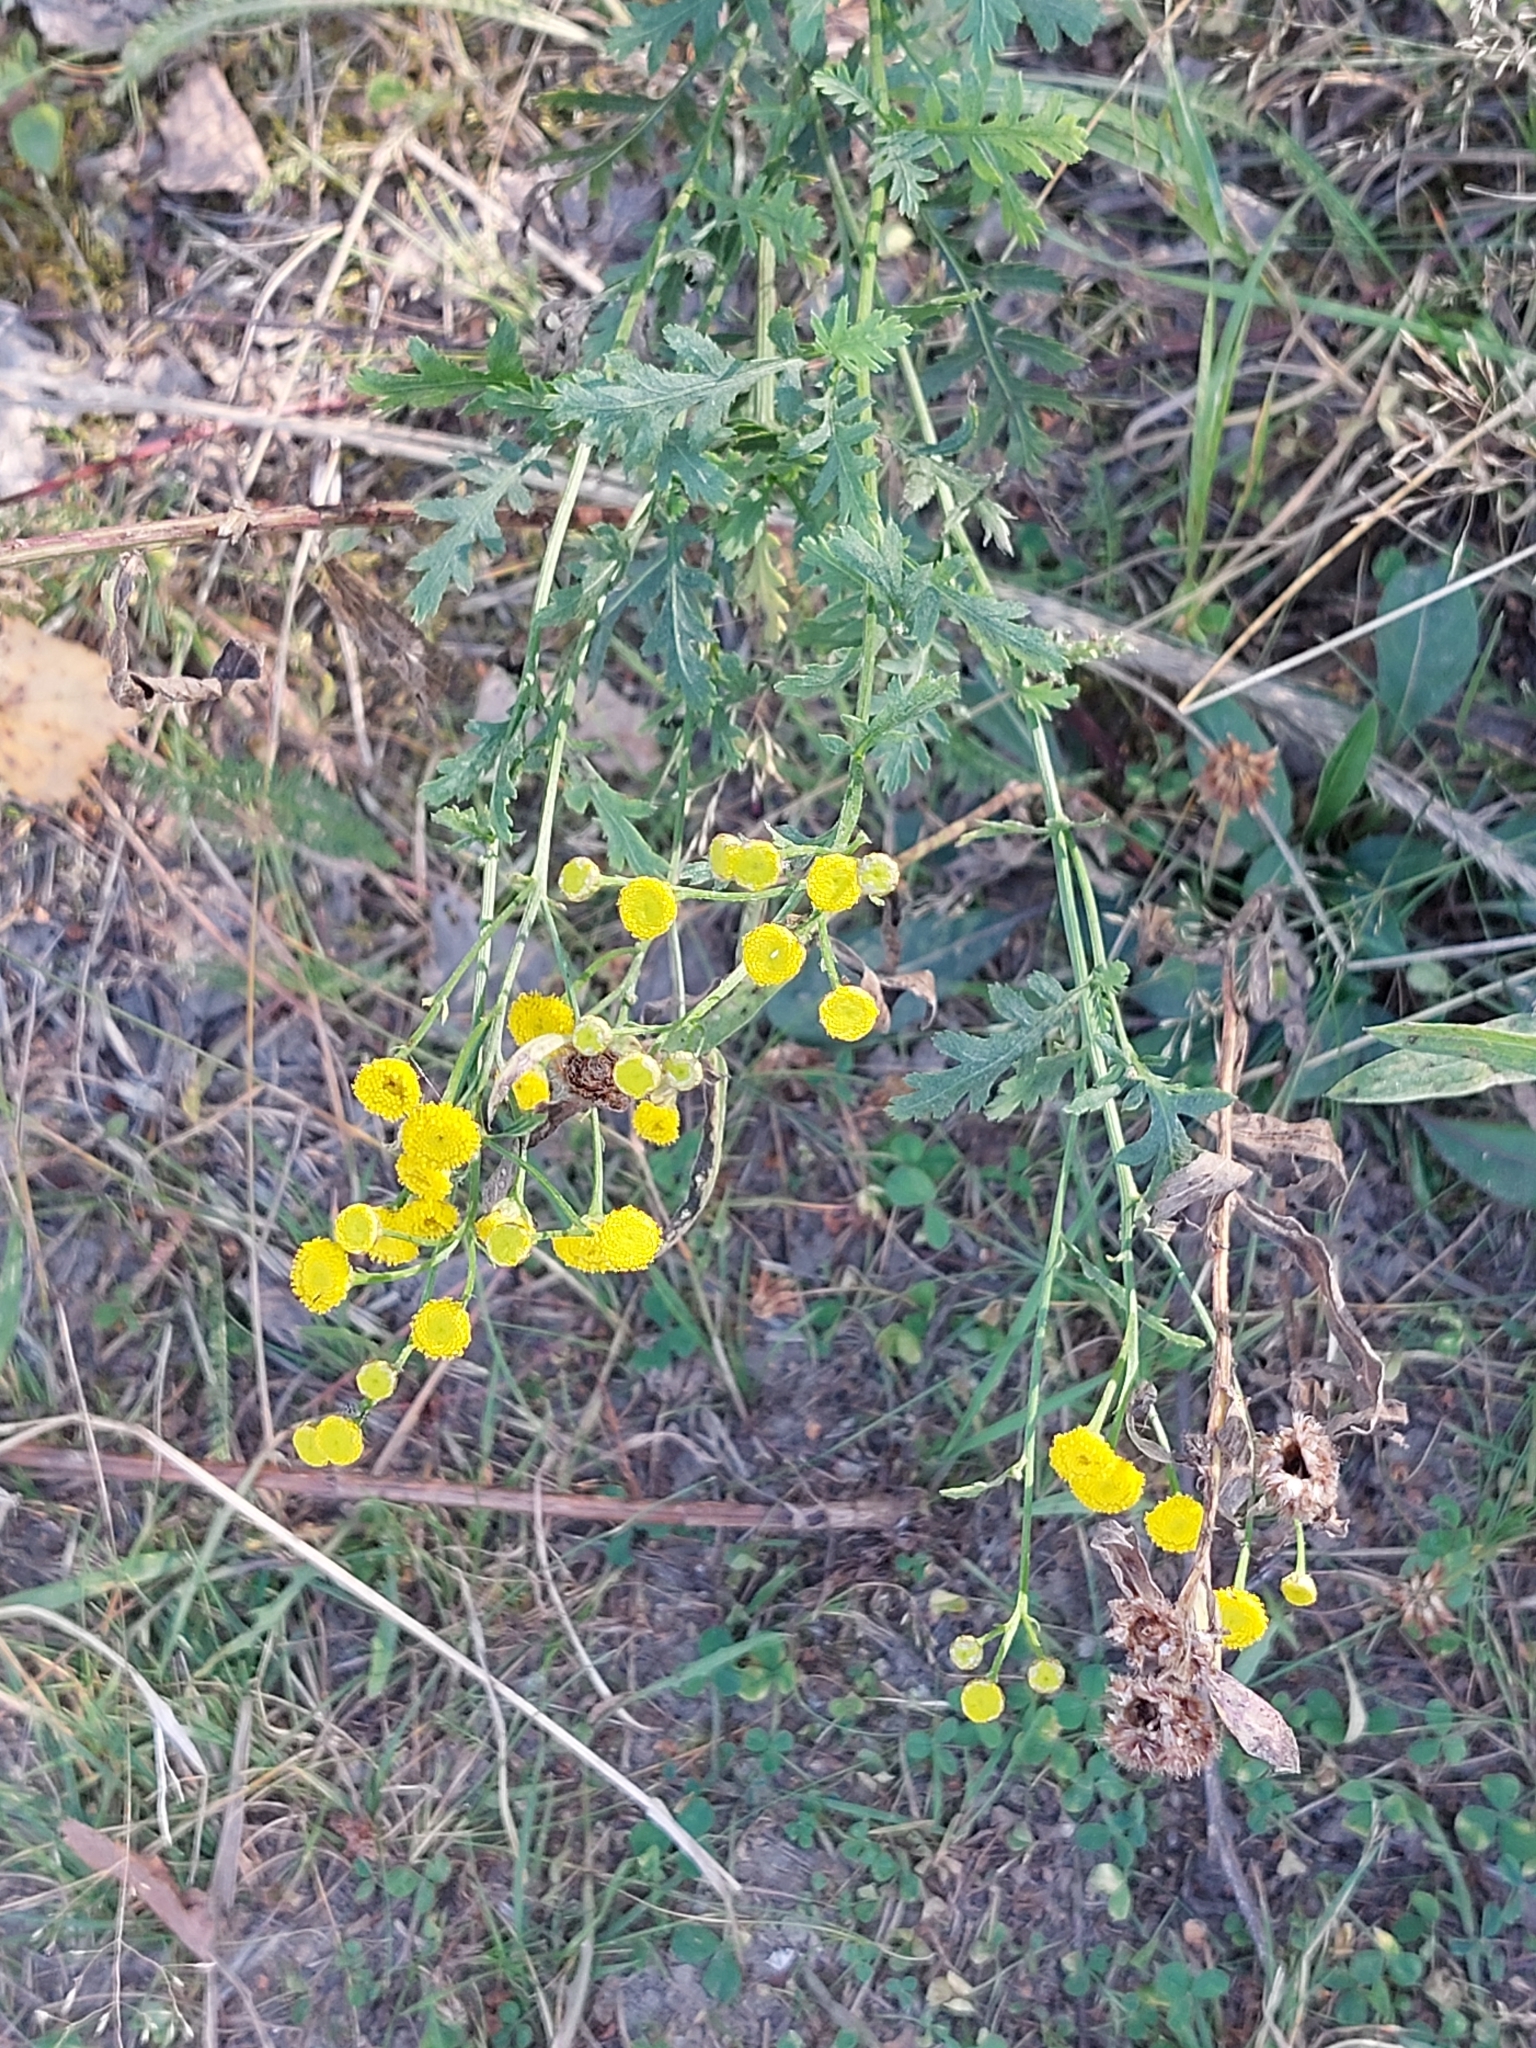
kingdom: Plantae
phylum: Tracheophyta
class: Magnoliopsida
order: Asterales
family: Asteraceae
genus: Tanacetum
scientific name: Tanacetum vulgare
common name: Common tansy
